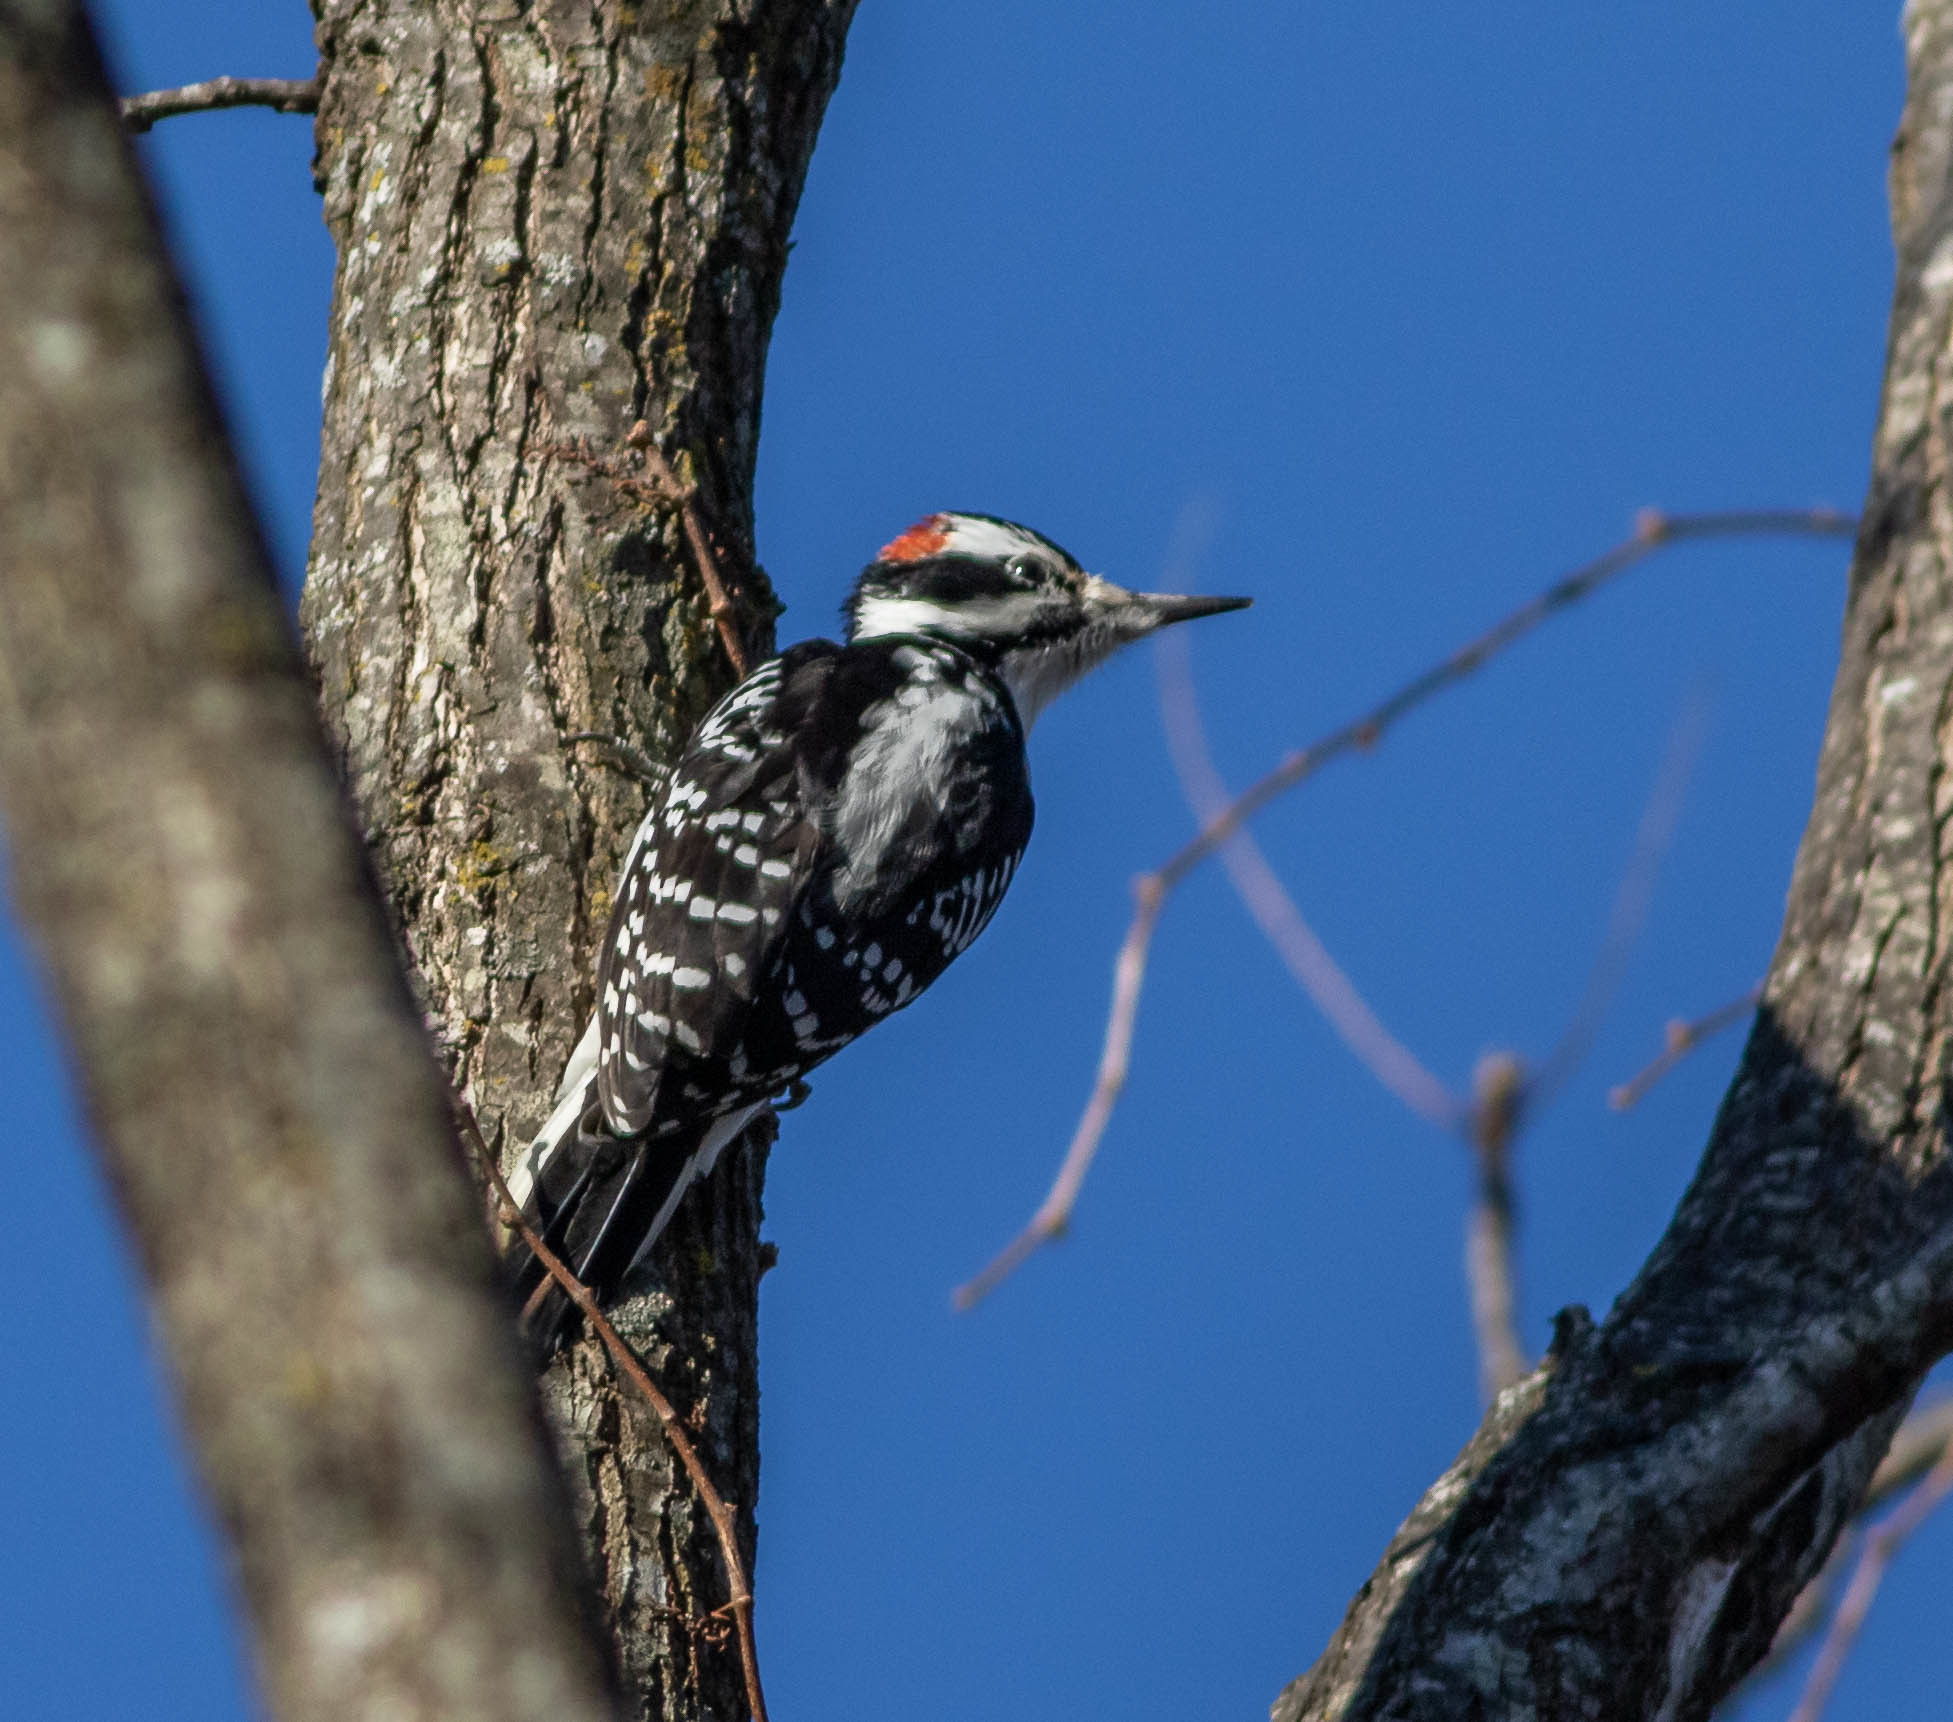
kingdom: Animalia
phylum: Chordata
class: Aves
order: Piciformes
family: Picidae
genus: Leuconotopicus
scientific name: Leuconotopicus villosus
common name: Hairy woodpecker
